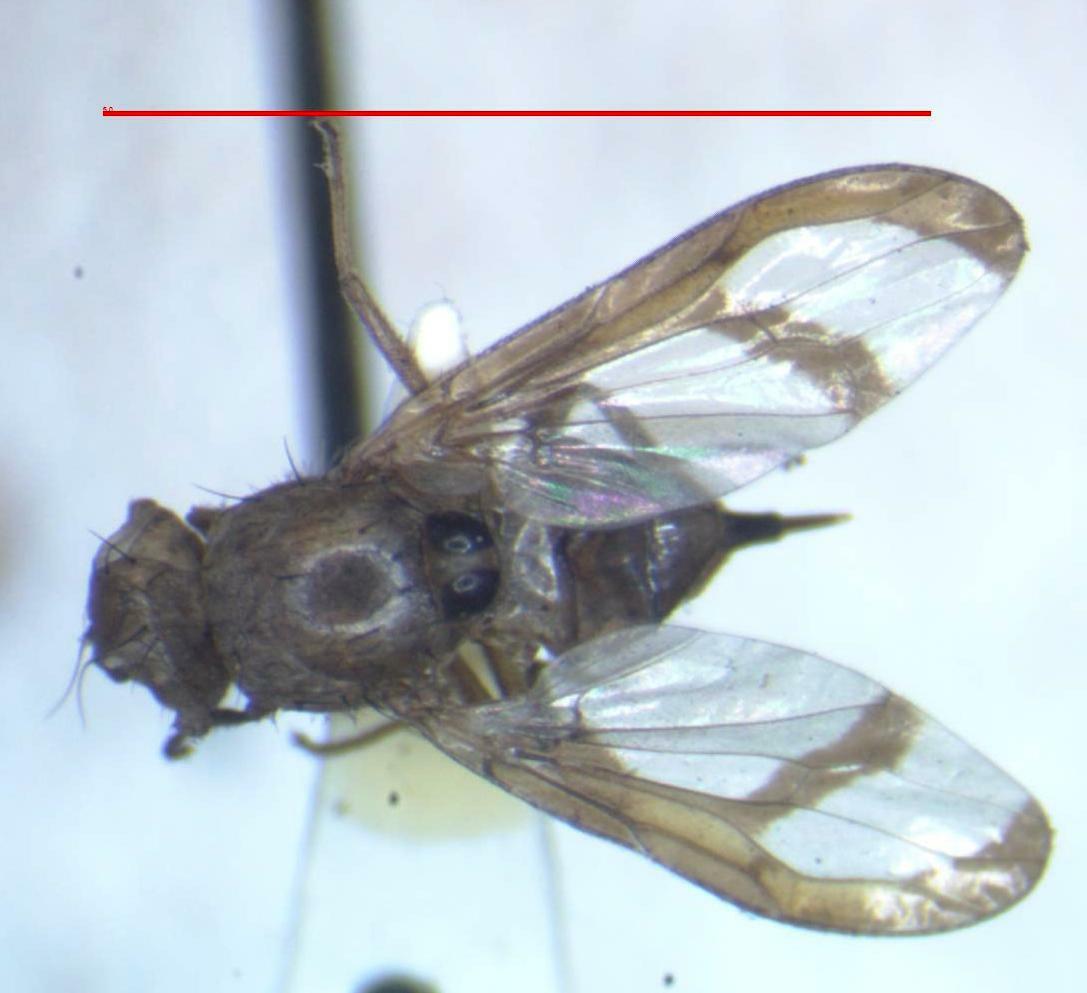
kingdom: Animalia
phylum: Arthropoda
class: Insecta
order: Diptera
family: Ulidiidae
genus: Xanthacrona
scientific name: Xanthacrona bipustulata
